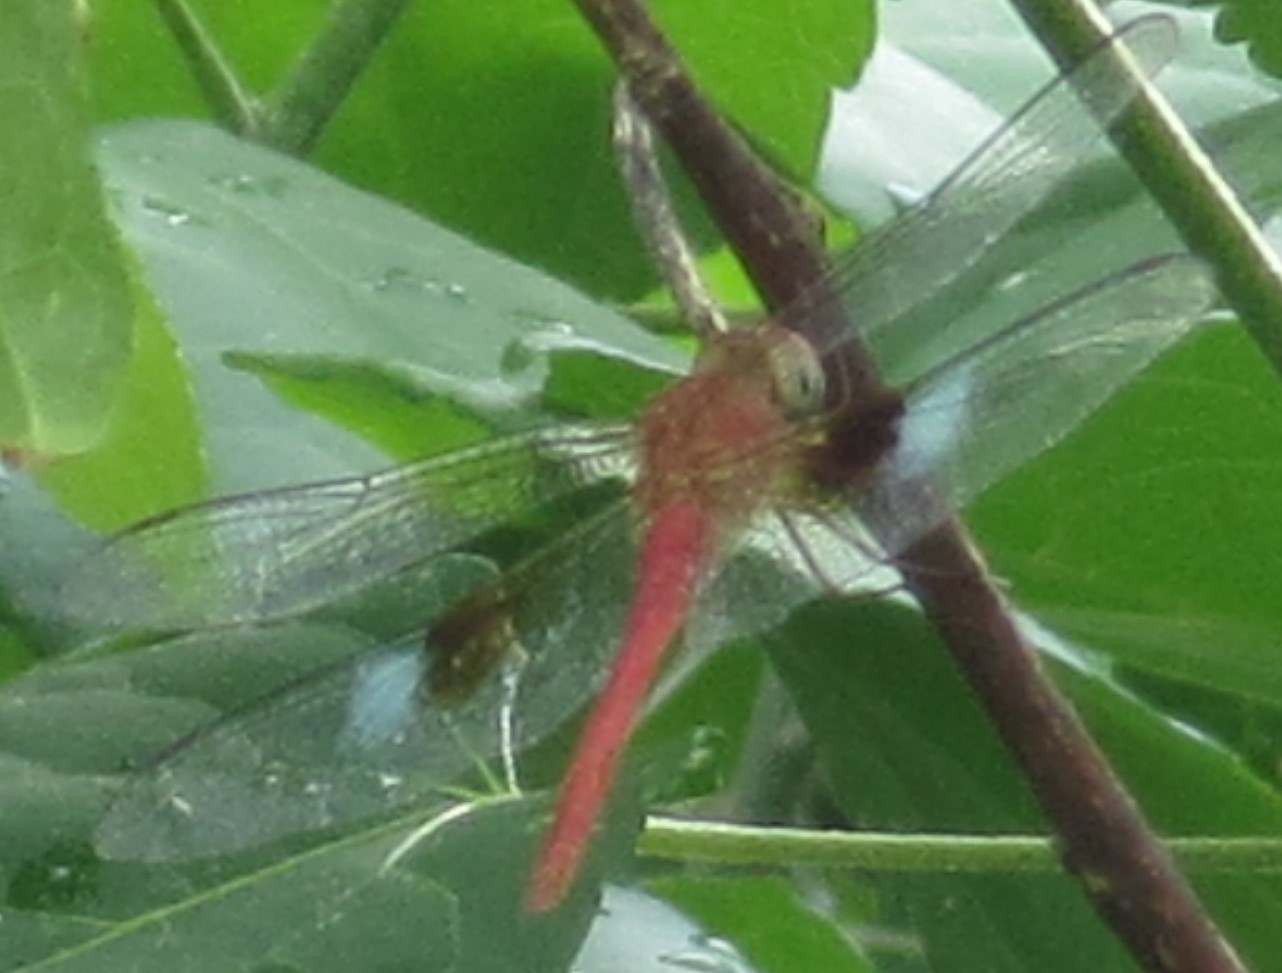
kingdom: Animalia
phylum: Arthropoda
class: Insecta
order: Odonata
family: Libellulidae
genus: Tholymis
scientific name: Tholymis tillarga
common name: Coral-tailed cloud wing
